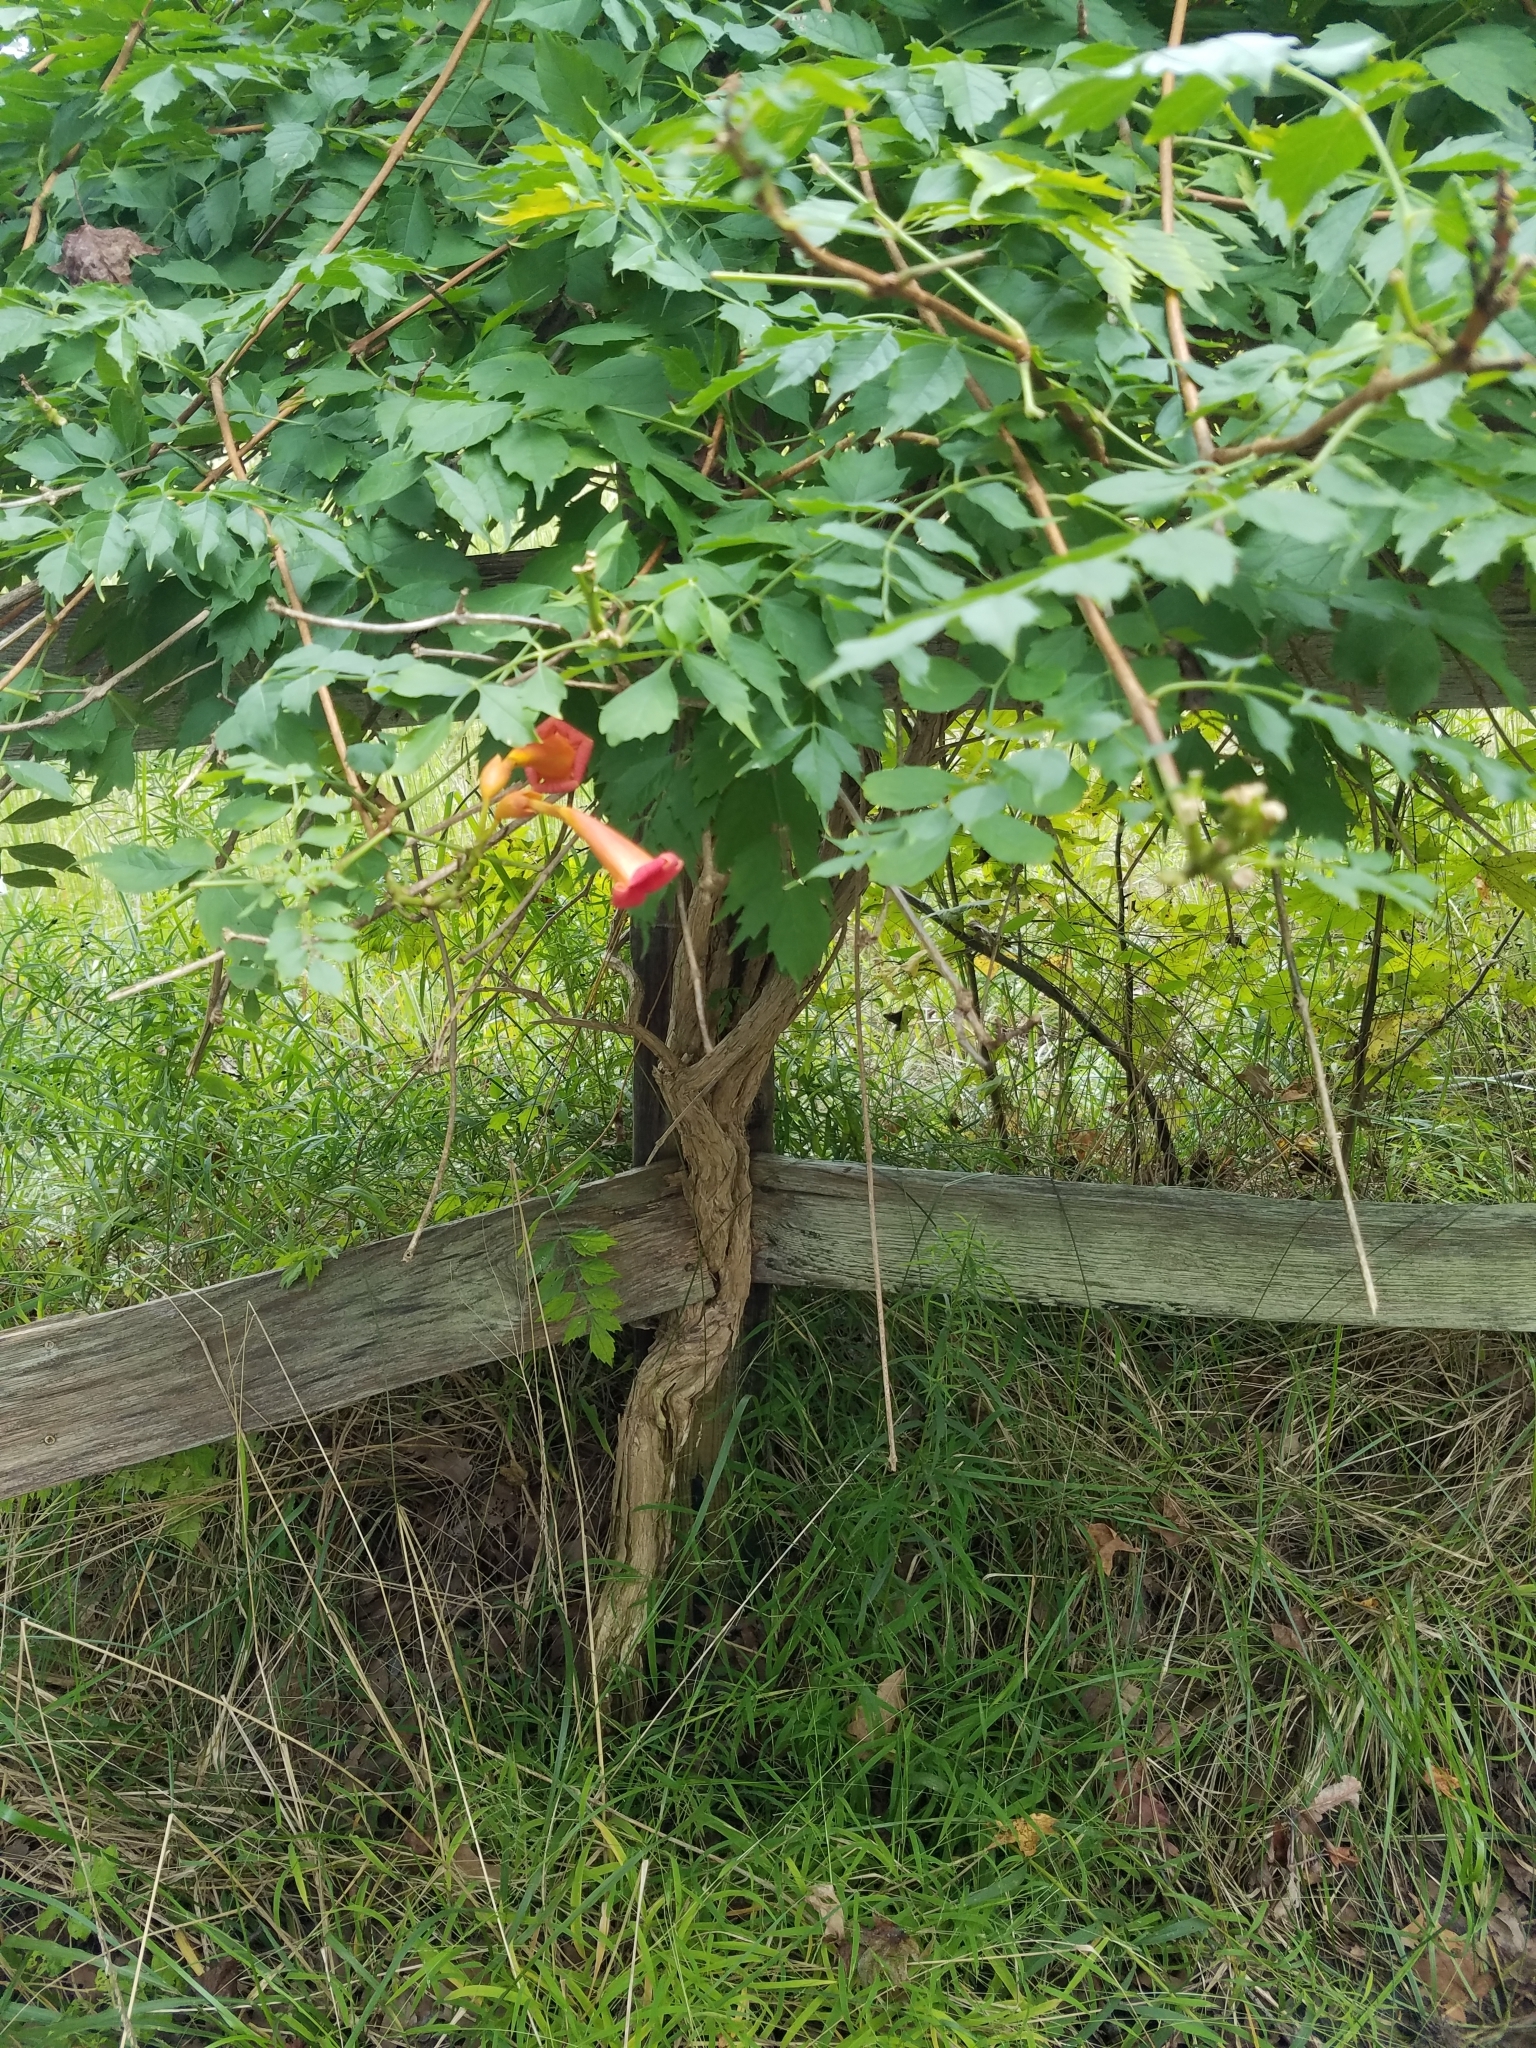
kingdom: Plantae
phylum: Tracheophyta
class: Magnoliopsida
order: Lamiales
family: Bignoniaceae
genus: Campsis
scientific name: Campsis radicans
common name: Trumpet-creeper
